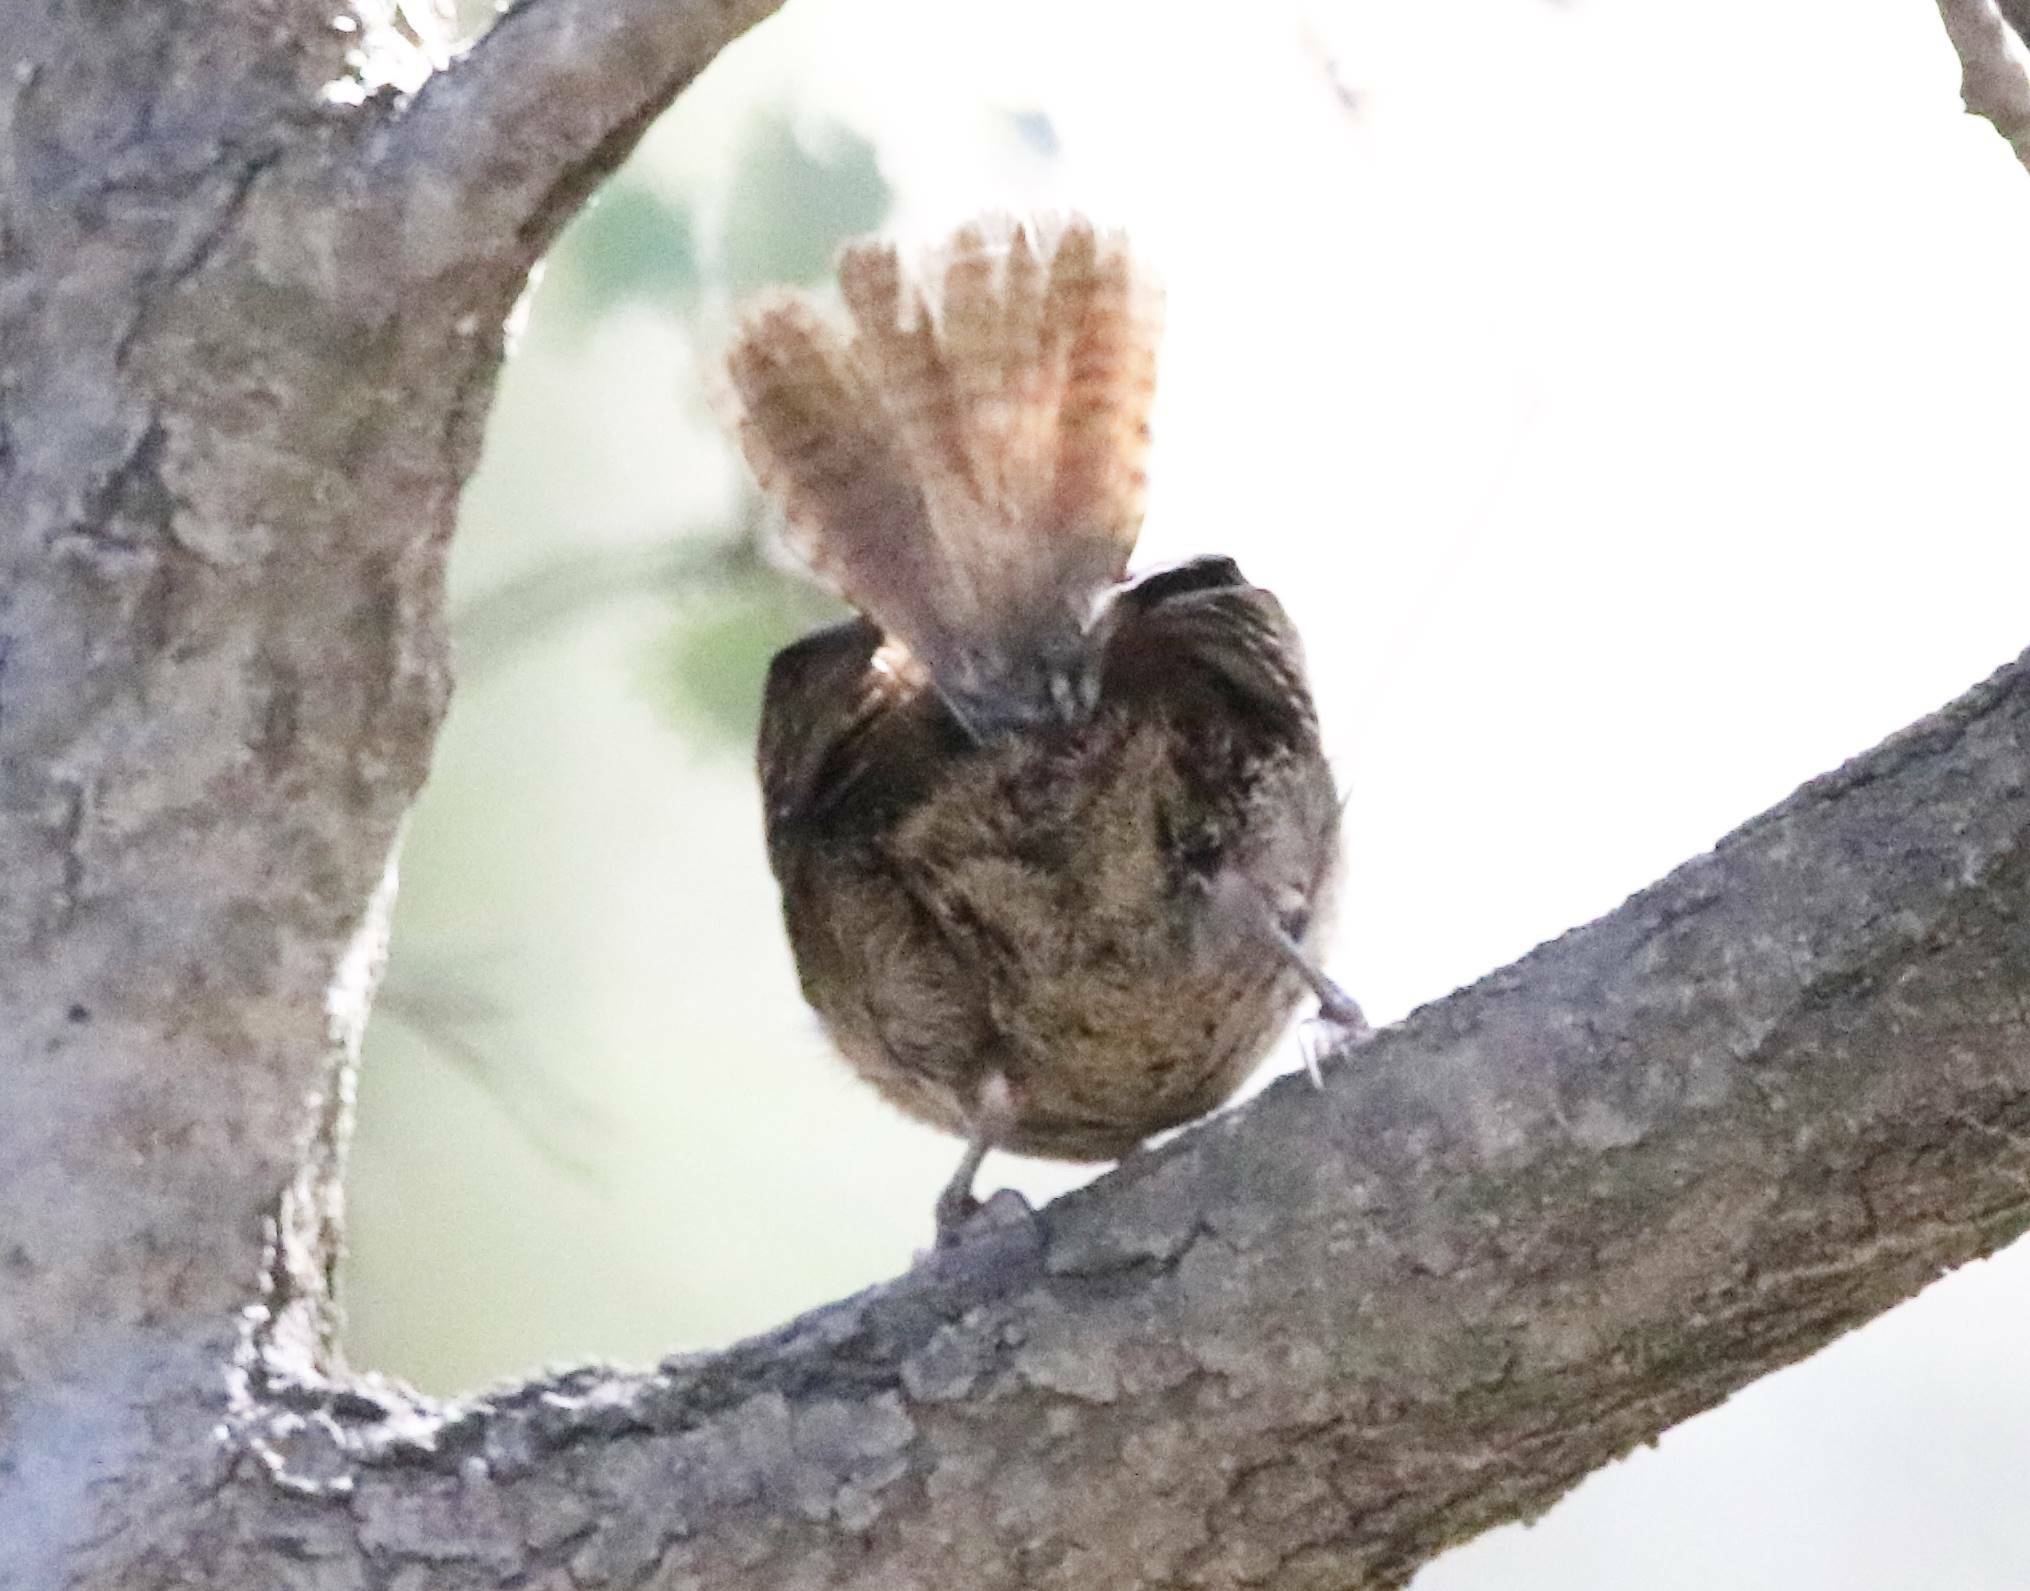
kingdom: Animalia
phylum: Chordata
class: Aves
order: Passeriformes
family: Troglodytidae
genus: Troglodytes
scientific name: Troglodytes troglodytes
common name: Eurasian wren
